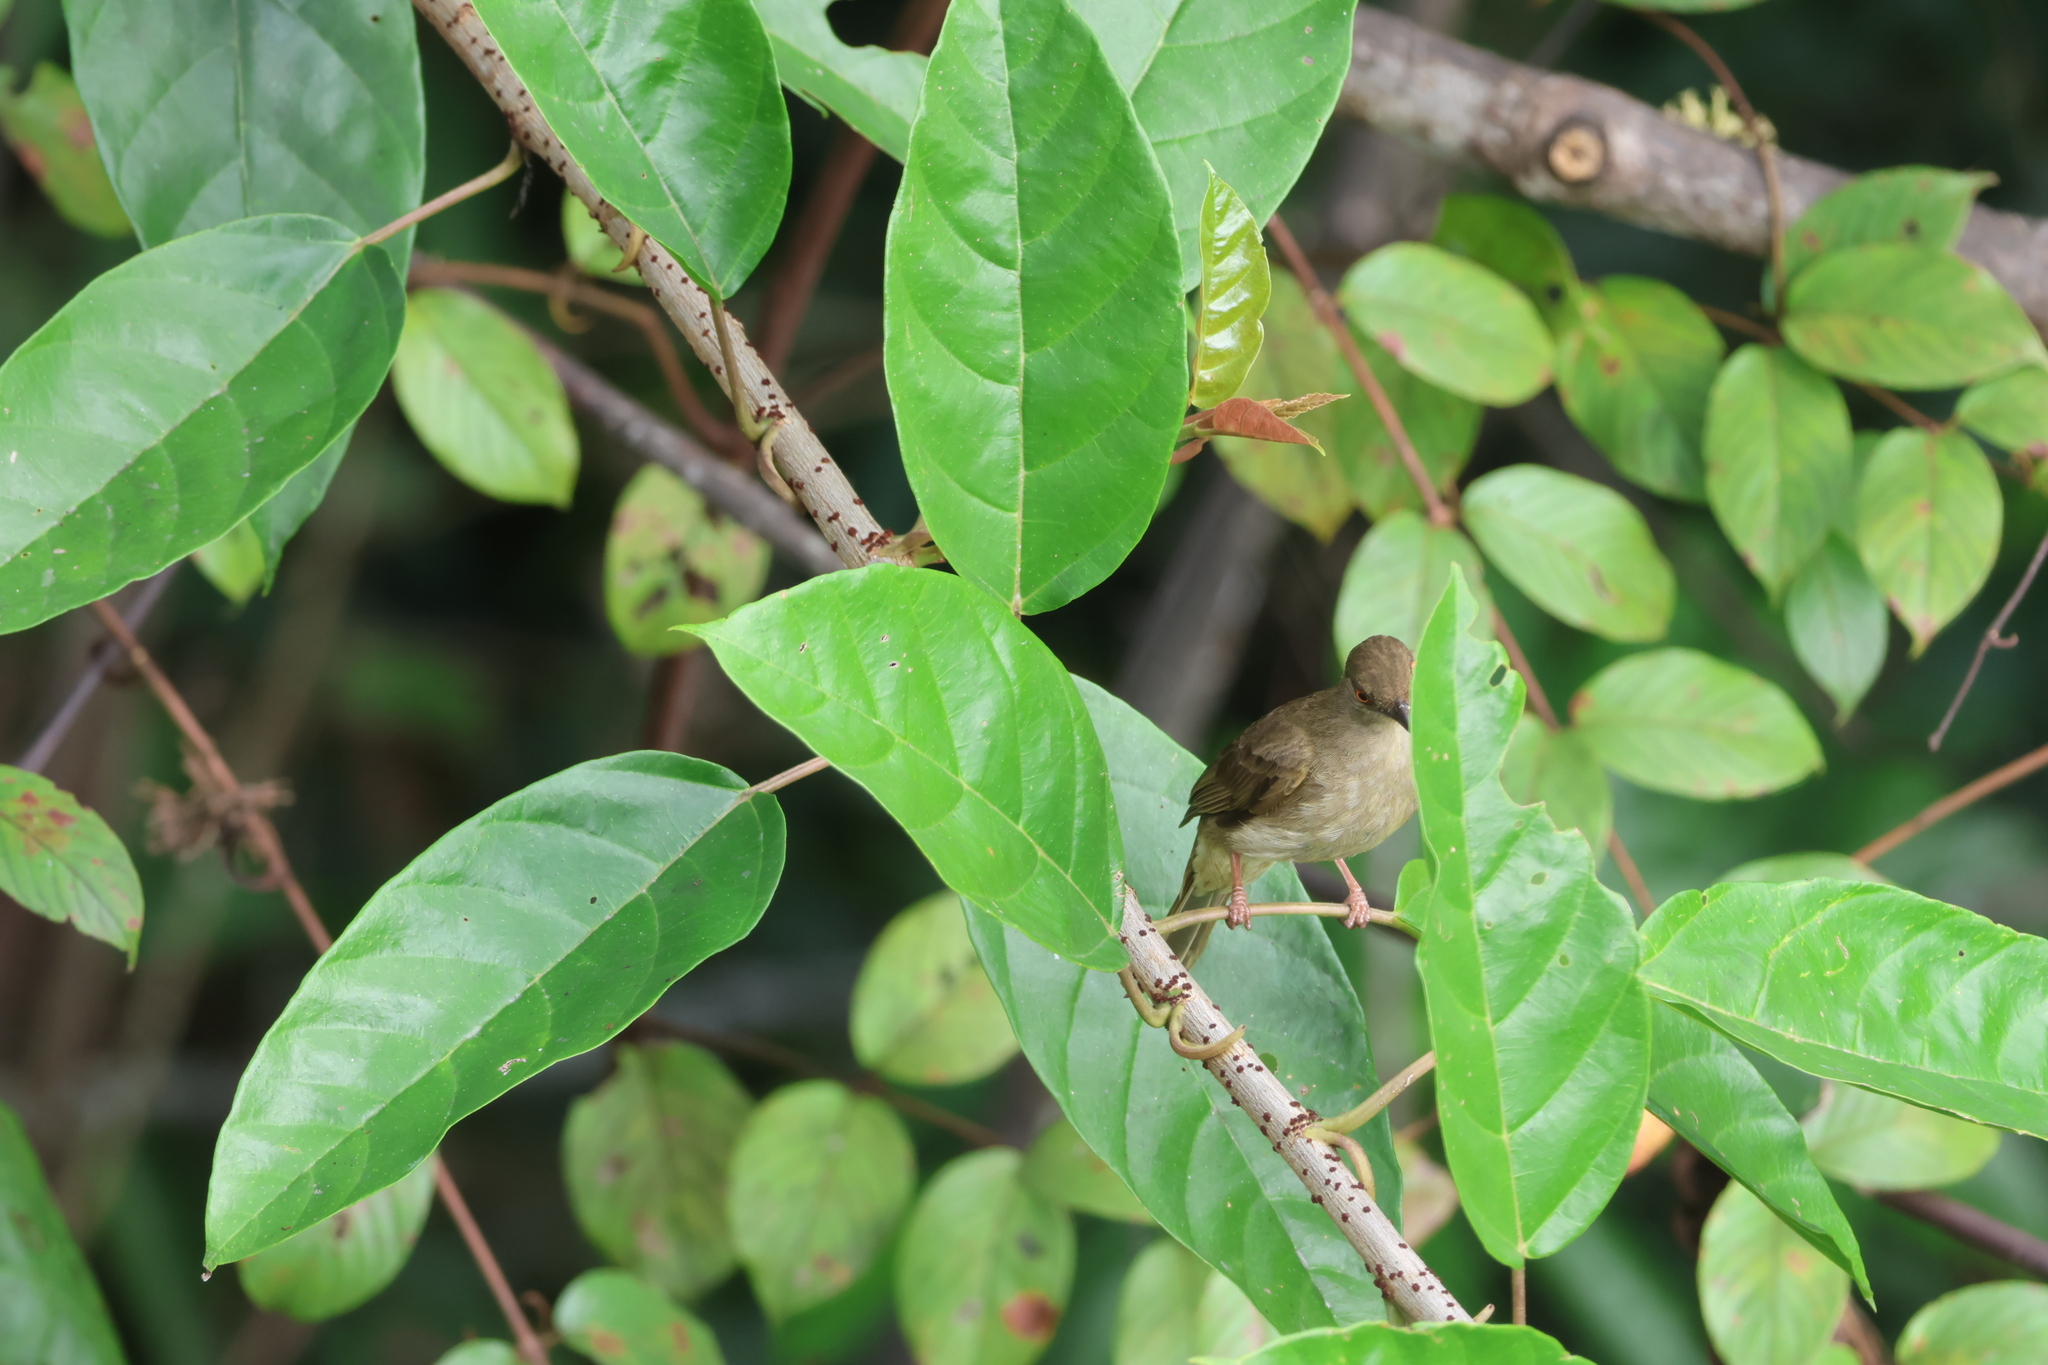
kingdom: Animalia
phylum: Chordata
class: Aves
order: Passeriformes
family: Pycnonotidae
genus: Pycnonotus
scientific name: Pycnonotus brunneus
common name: Asian red-eyed bulbul
